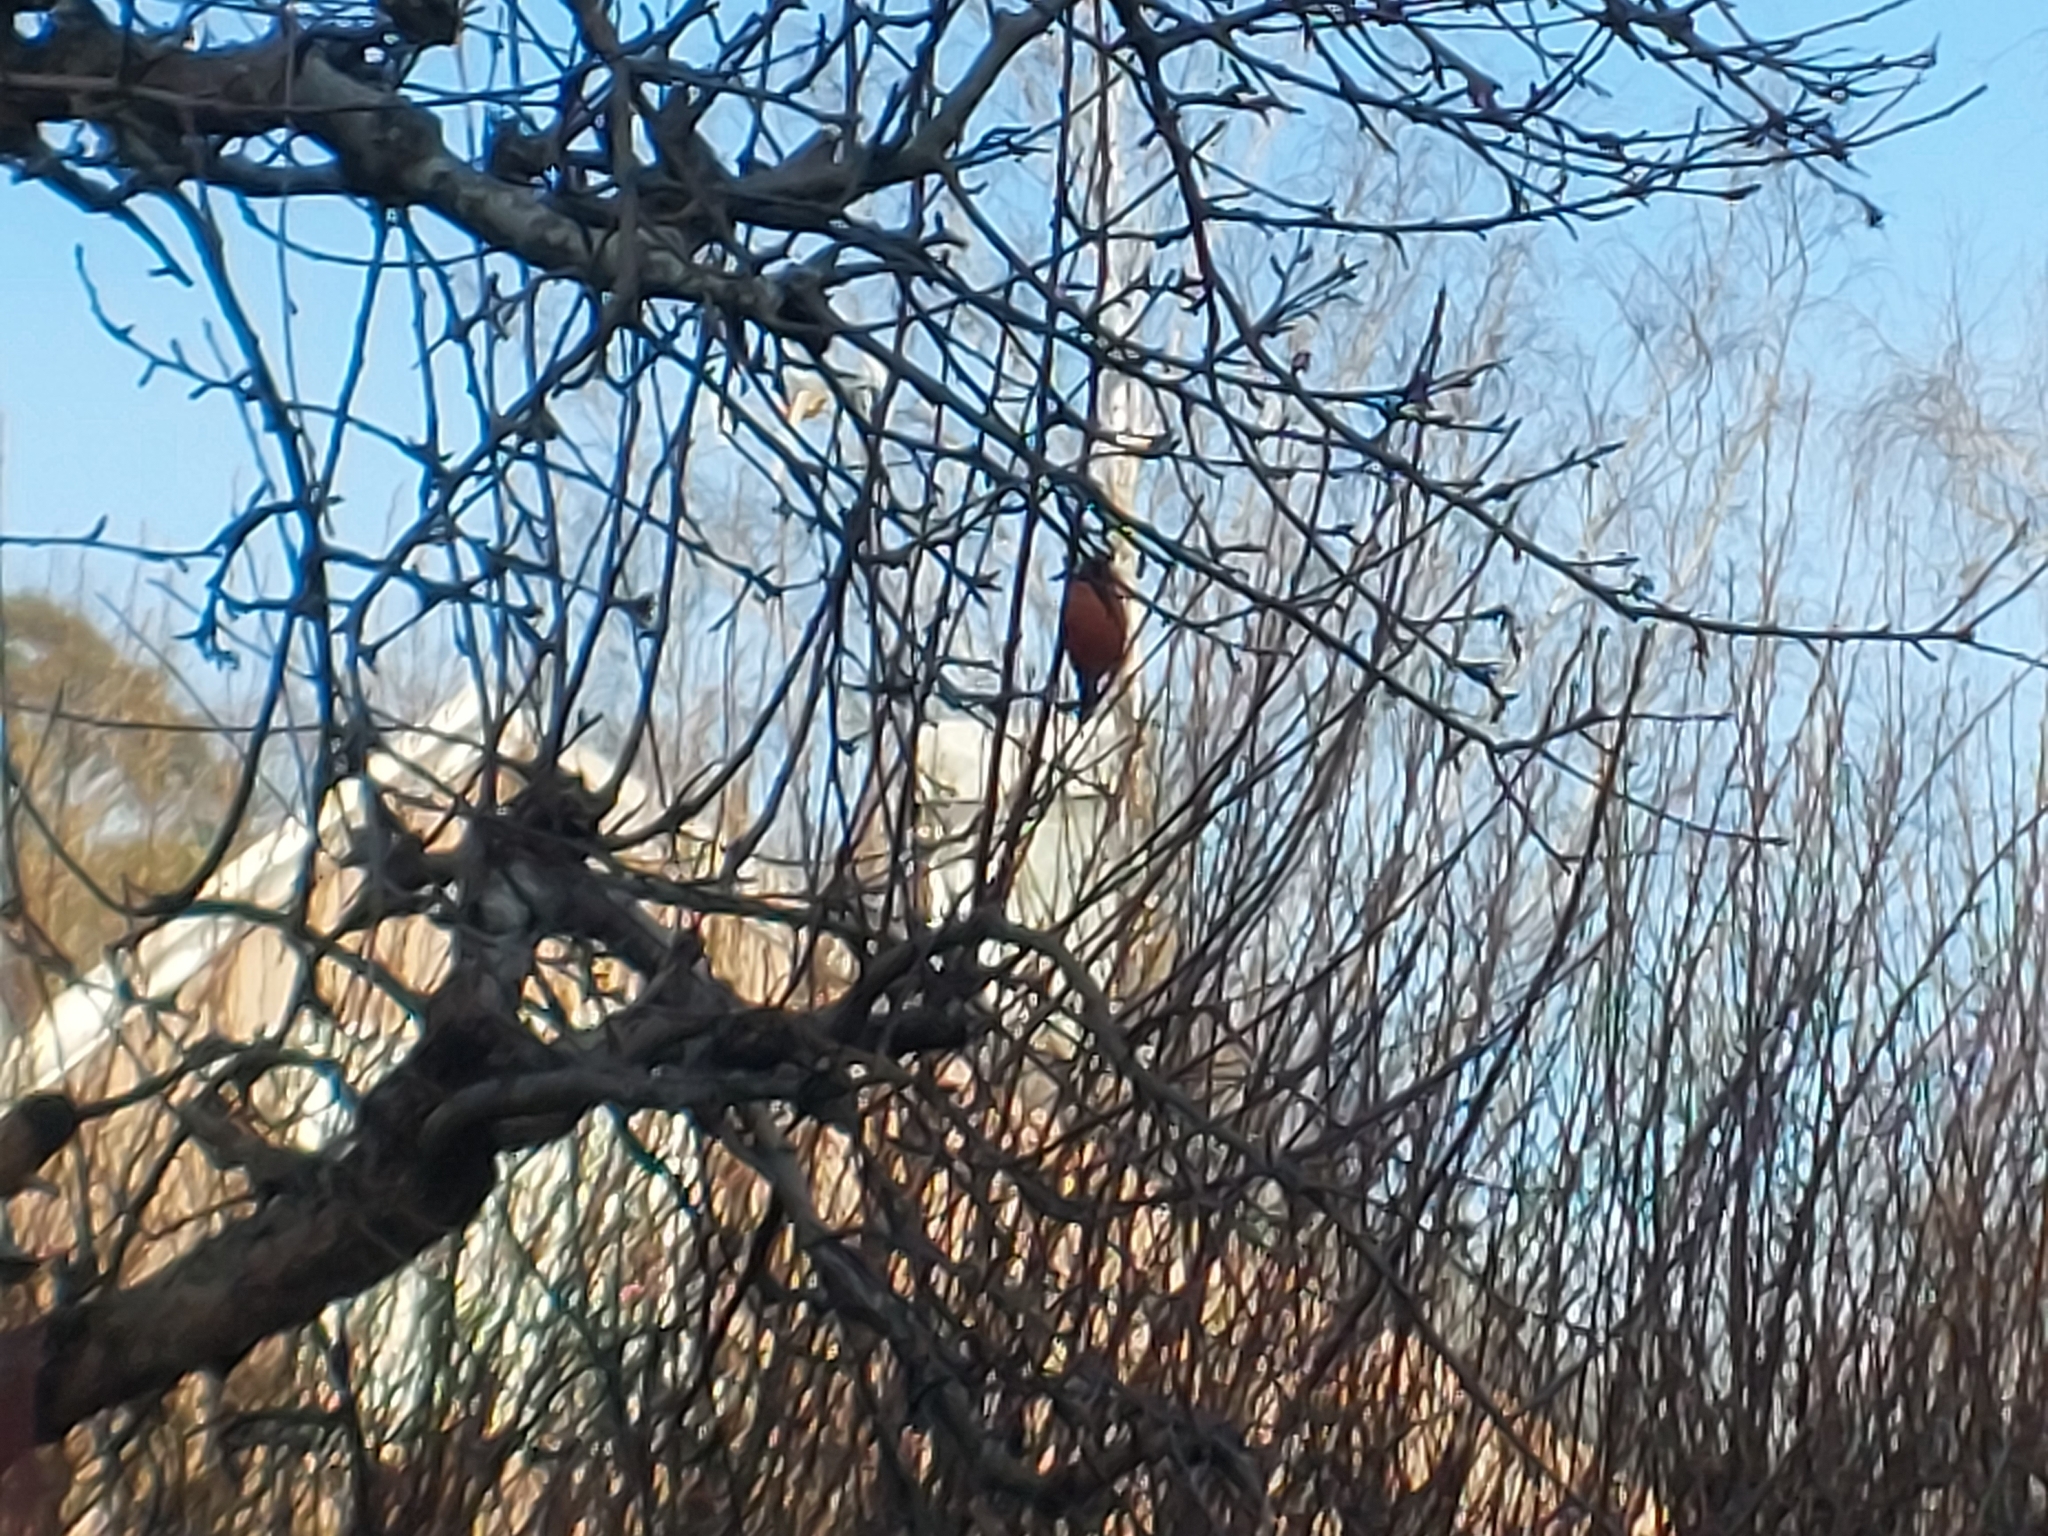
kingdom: Animalia
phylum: Chordata
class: Aves
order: Passeriformes
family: Fringillidae
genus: Pyrrhula
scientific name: Pyrrhula pyrrhula
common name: Eurasian bullfinch
